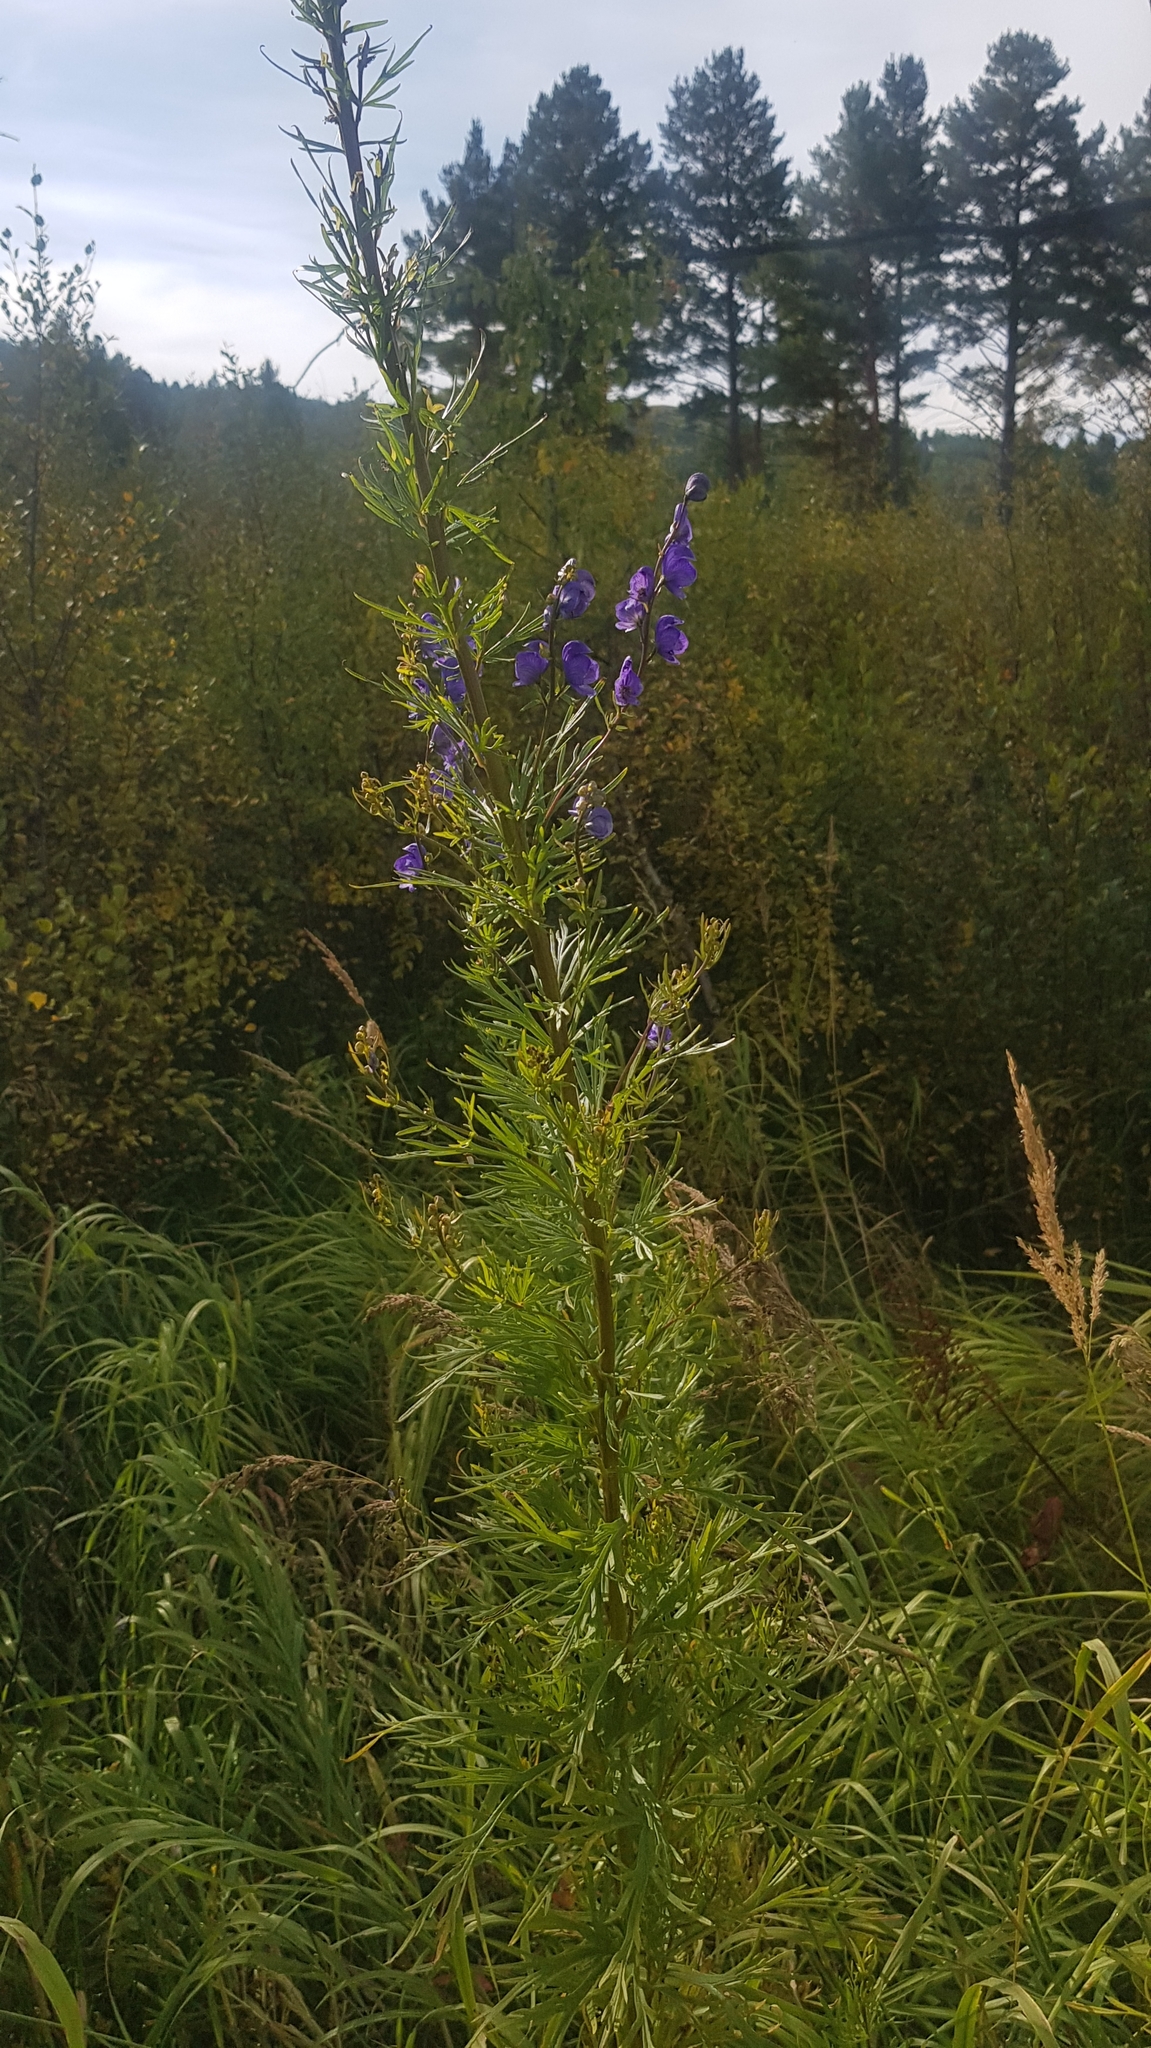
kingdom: Plantae
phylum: Tracheophyta
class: Magnoliopsida
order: Ranunculales
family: Ranunculaceae
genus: Aconitum
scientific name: Aconitum baicalense
